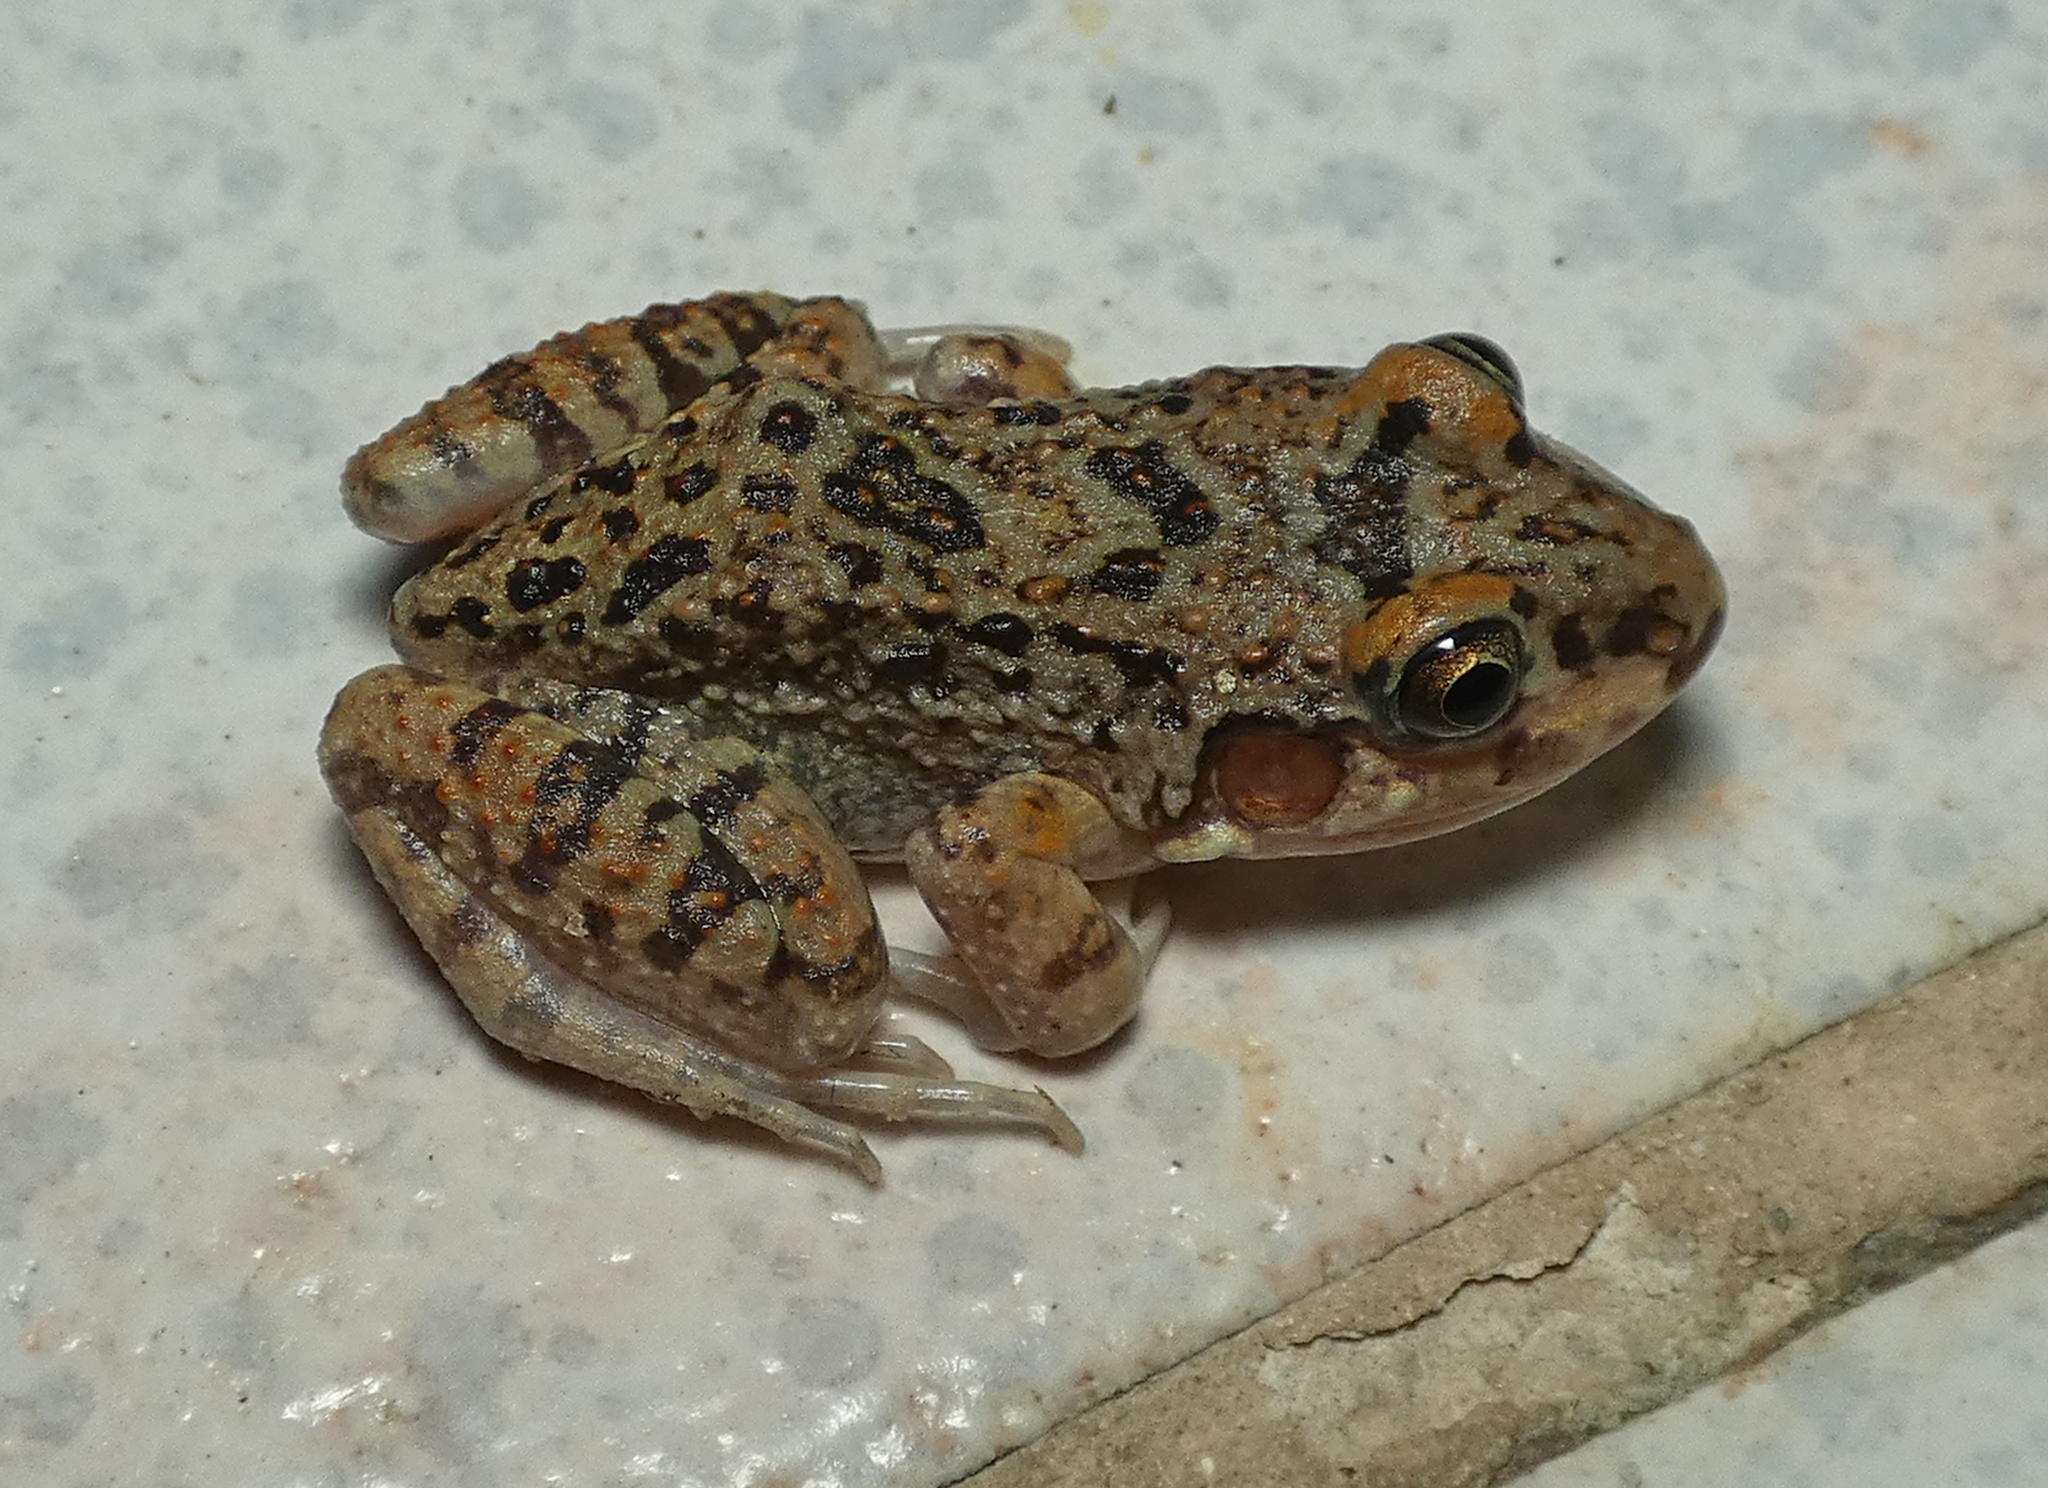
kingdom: Animalia
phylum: Chordata
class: Amphibia
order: Anura
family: Leptodactylidae
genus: Leptodactylus
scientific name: Leptodactylus troglodytes
